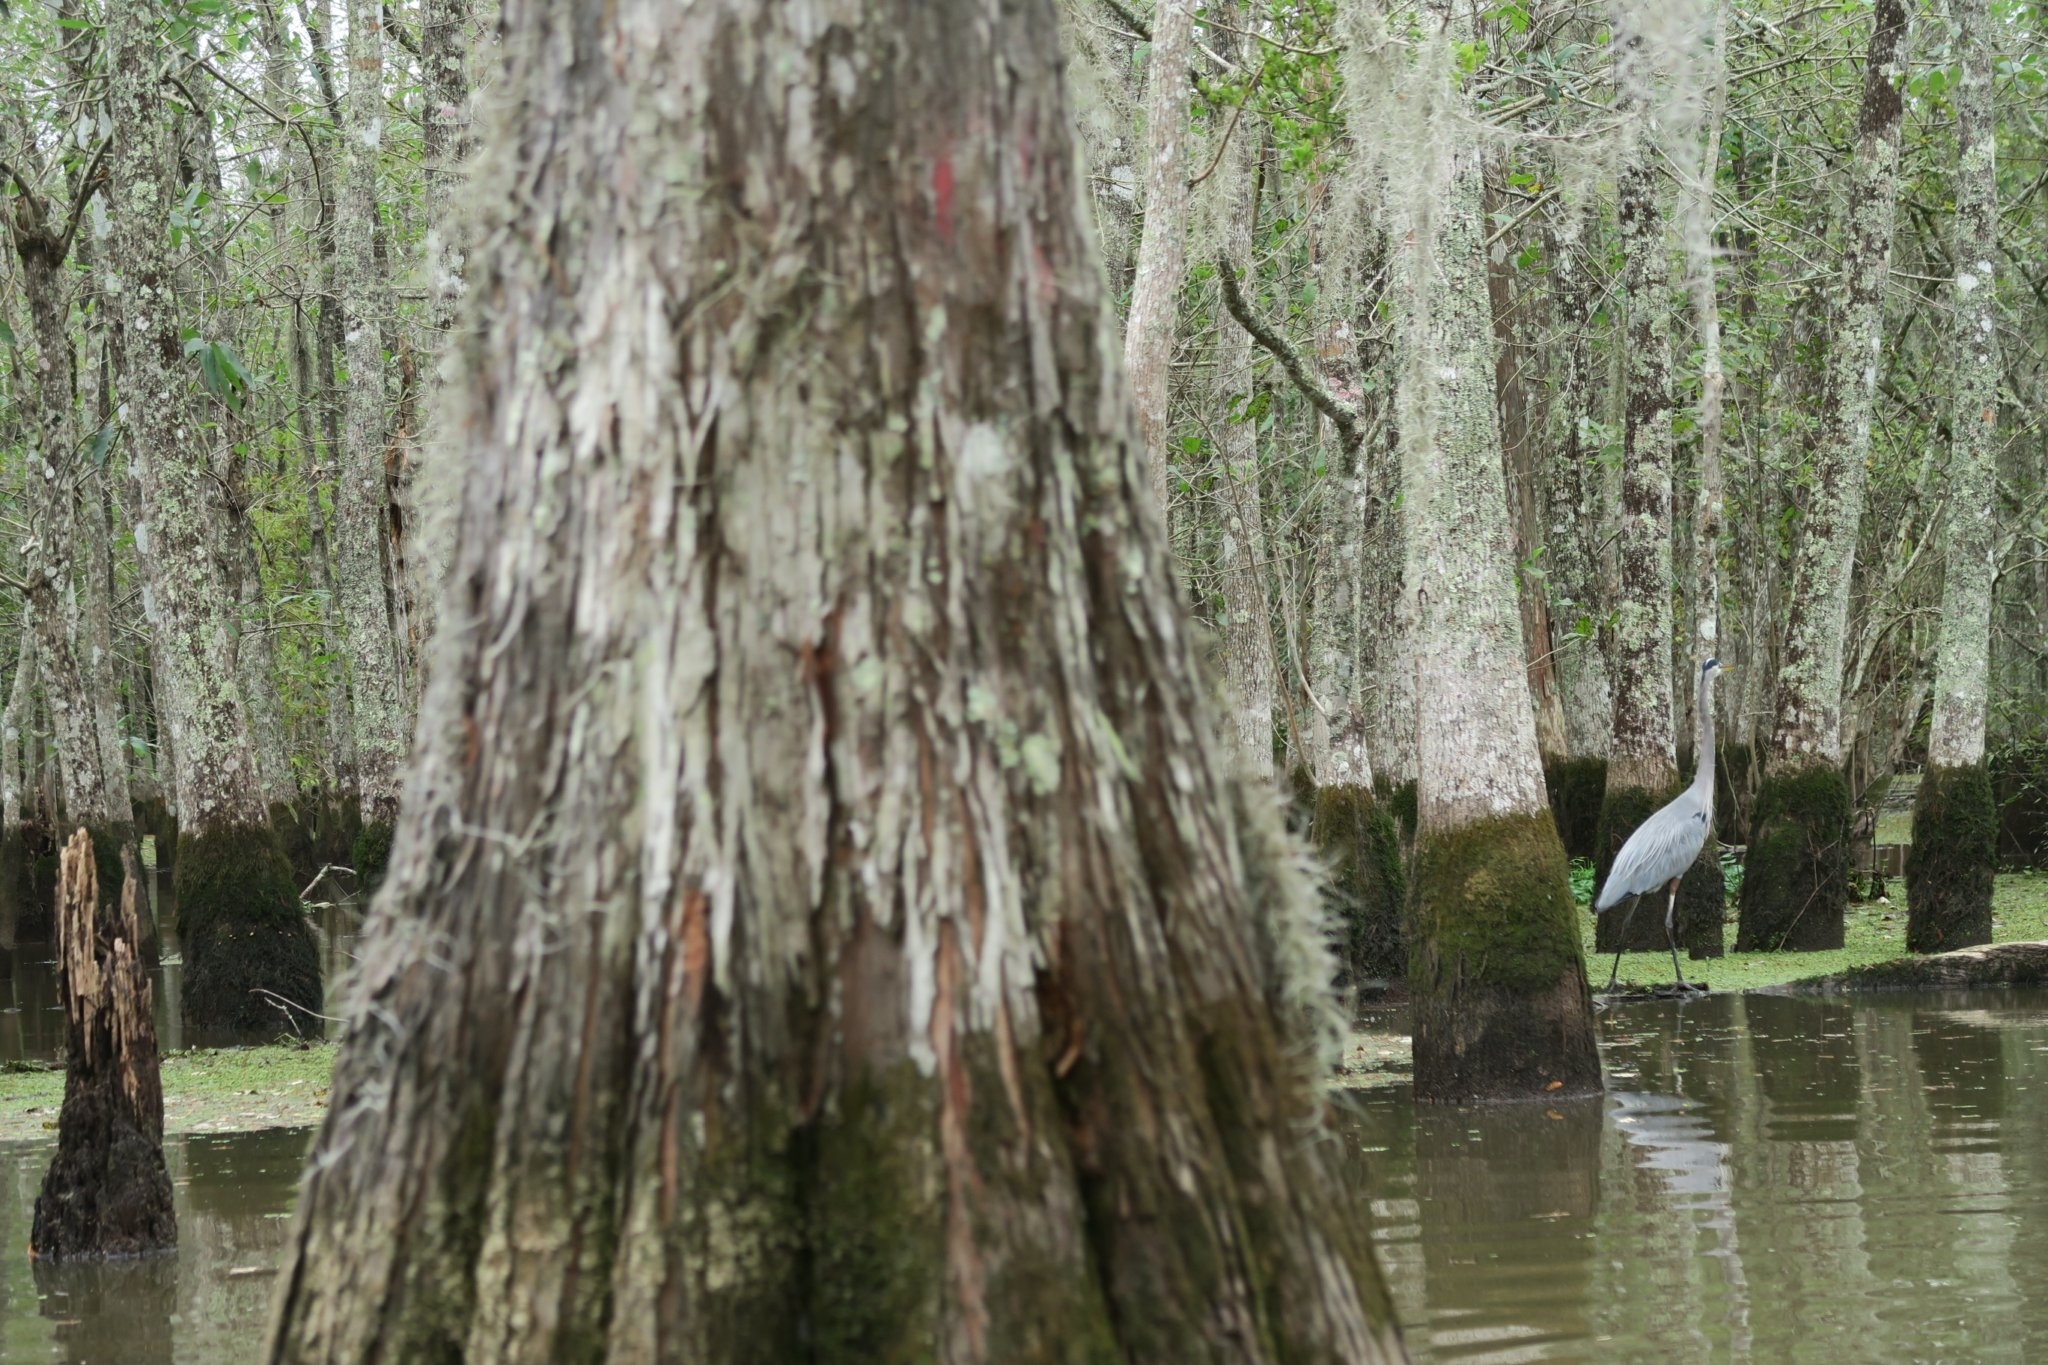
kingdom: Animalia
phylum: Chordata
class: Aves
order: Pelecaniformes
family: Ardeidae
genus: Ardea
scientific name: Ardea herodias
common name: Great blue heron
